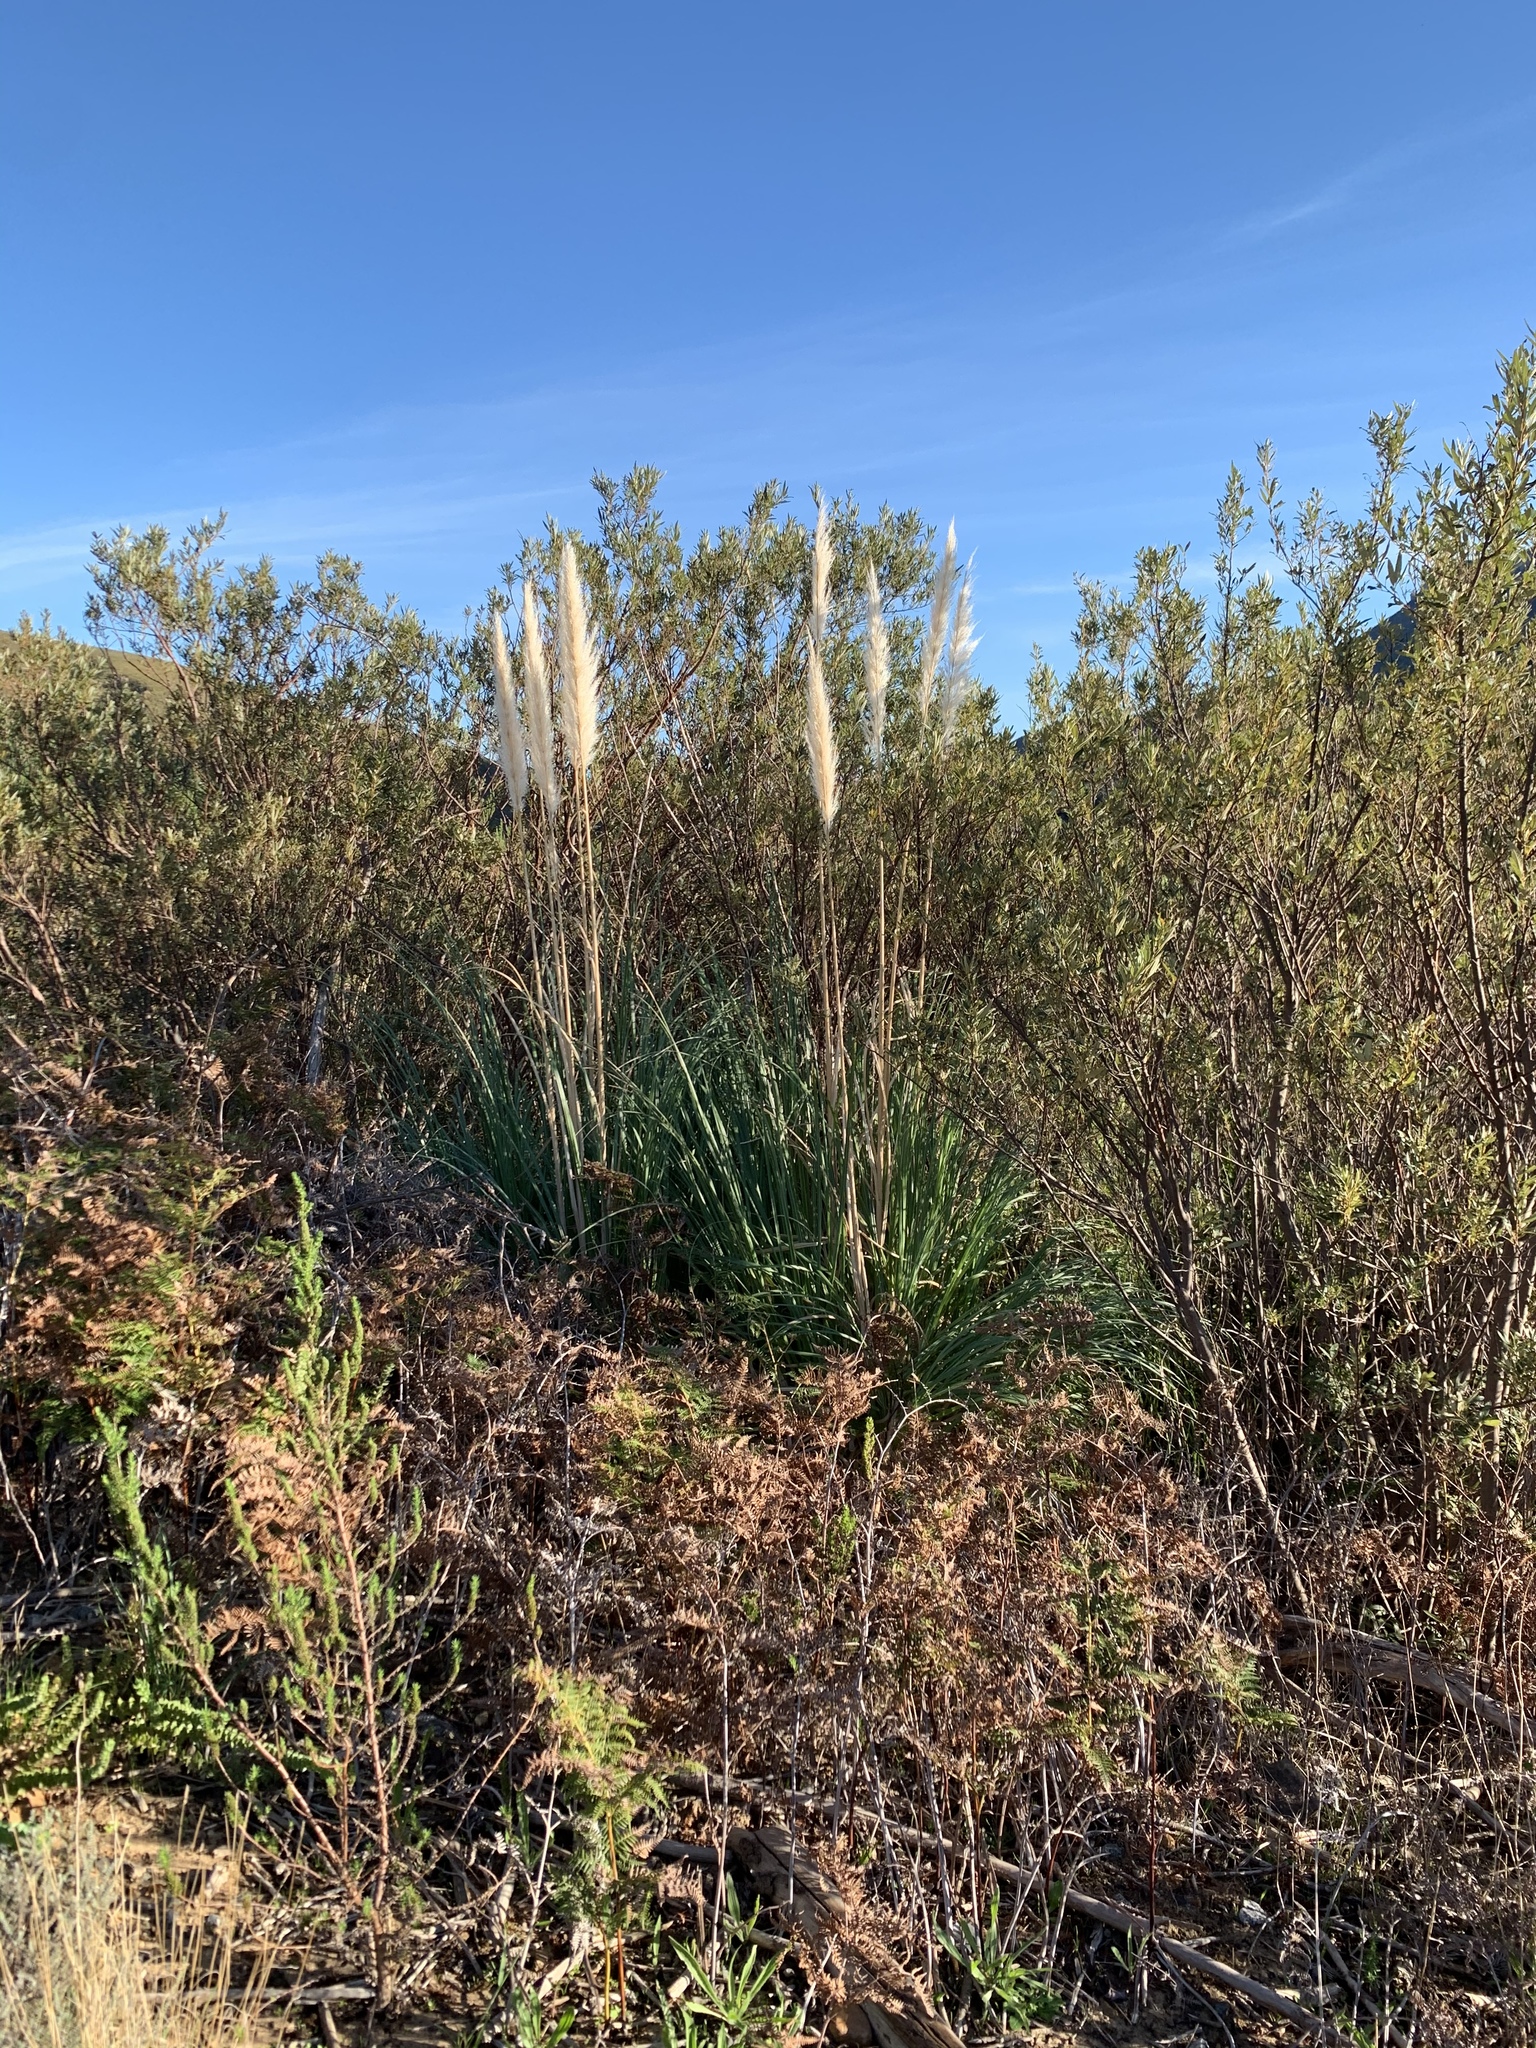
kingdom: Plantae
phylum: Tracheophyta
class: Liliopsida
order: Poales
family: Poaceae
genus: Cortaderia
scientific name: Cortaderia selloana
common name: Uruguayan pampas grass
